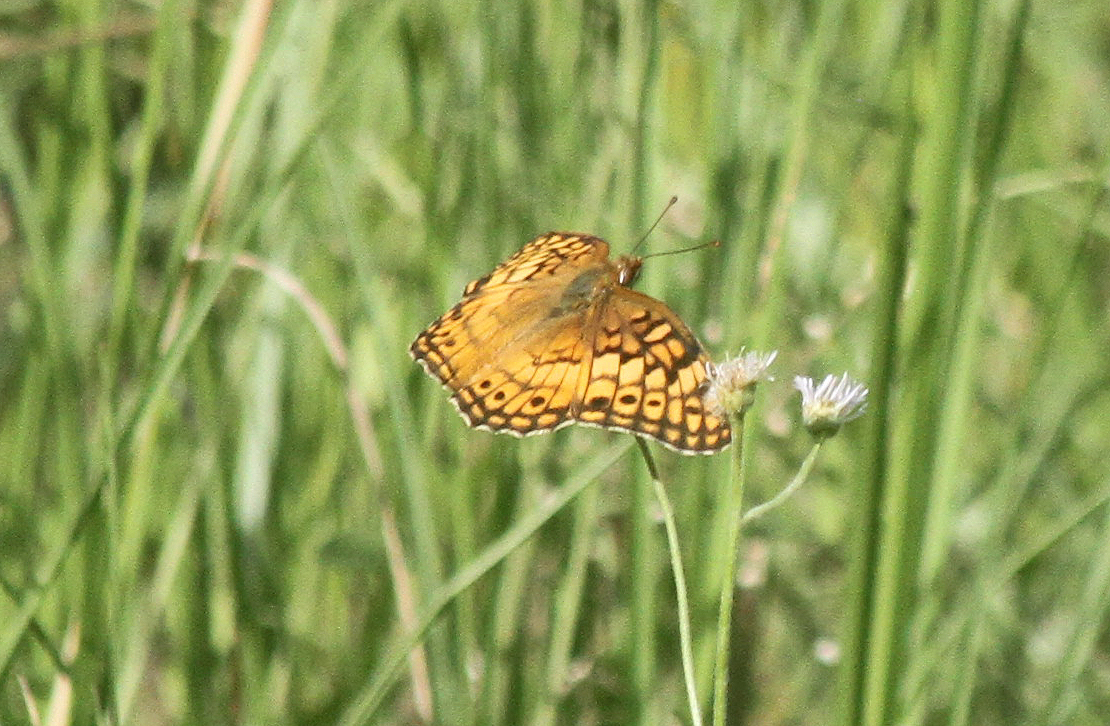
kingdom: Animalia
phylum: Arthropoda
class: Insecta
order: Lepidoptera
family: Nymphalidae
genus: Euptoieta
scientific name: Euptoieta claudia
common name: Variegated fritillary
